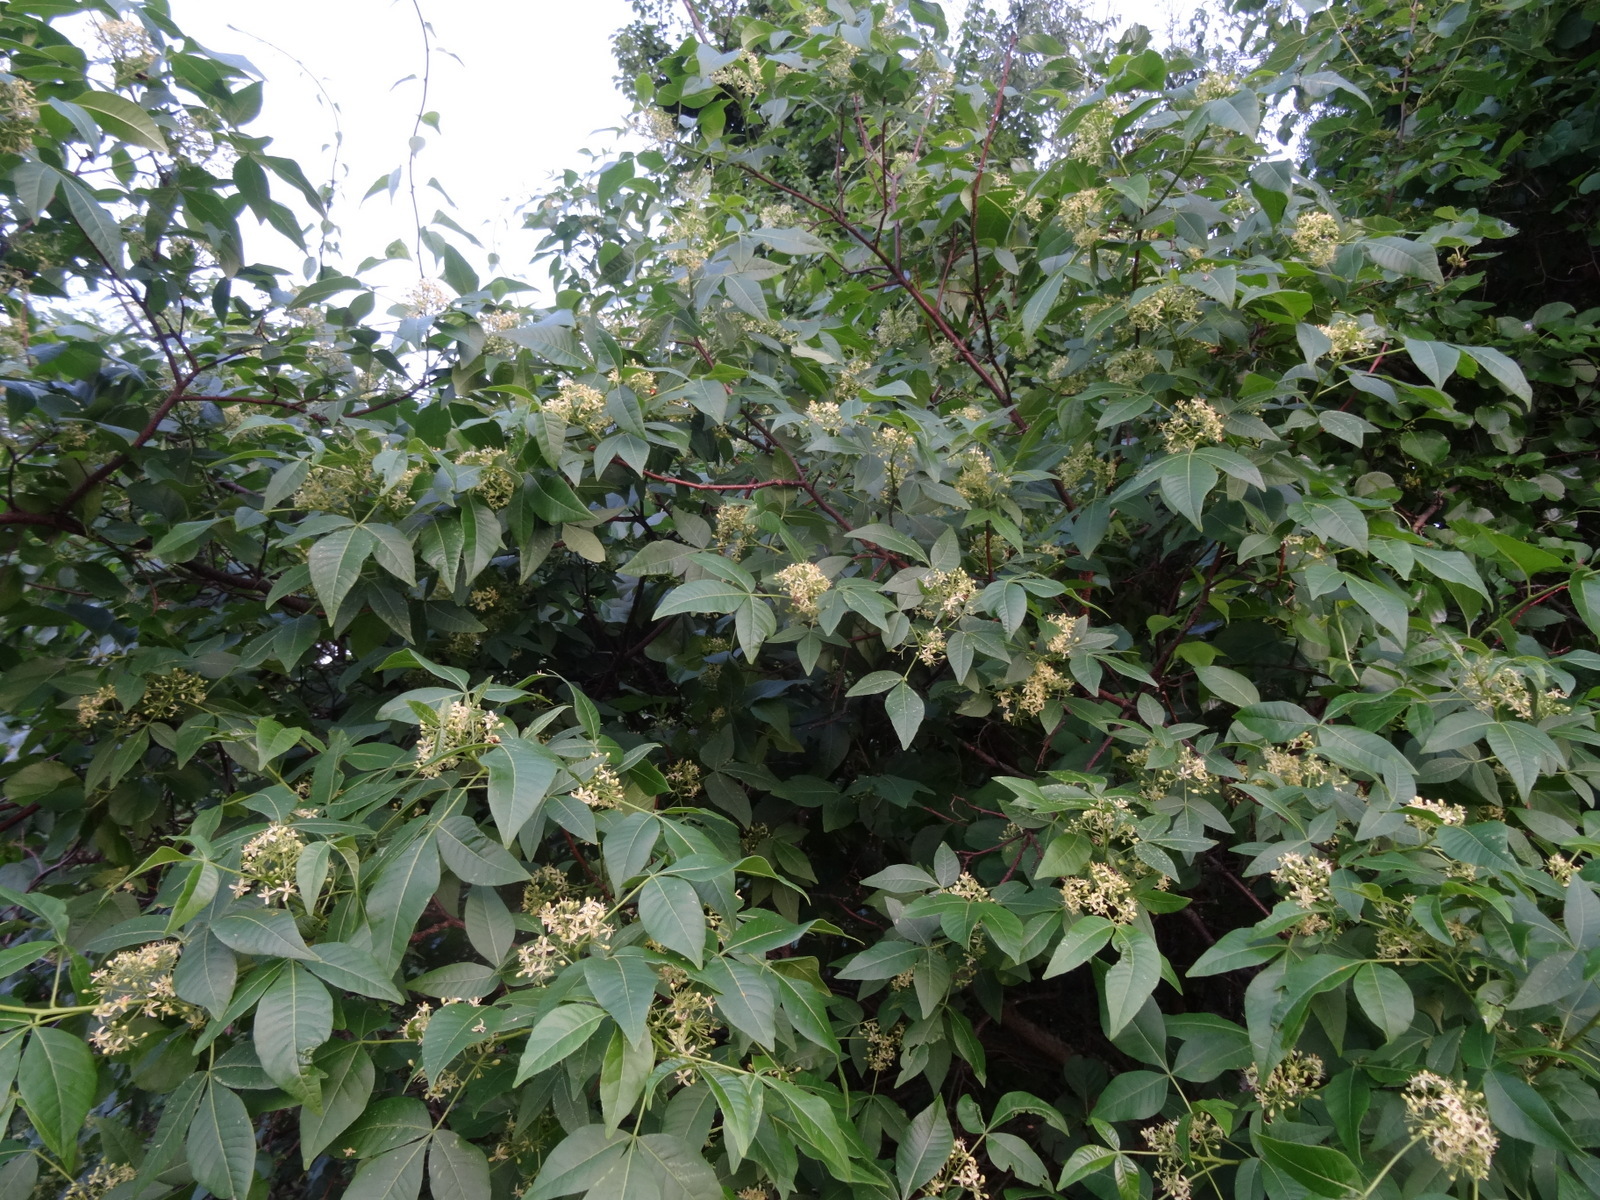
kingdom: Plantae
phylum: Tracheophyta
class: Magnoliopsida
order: Sapindales
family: Rutaceae
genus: Ptelea
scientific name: Ptelea trifoliata
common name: Common hop-tree
